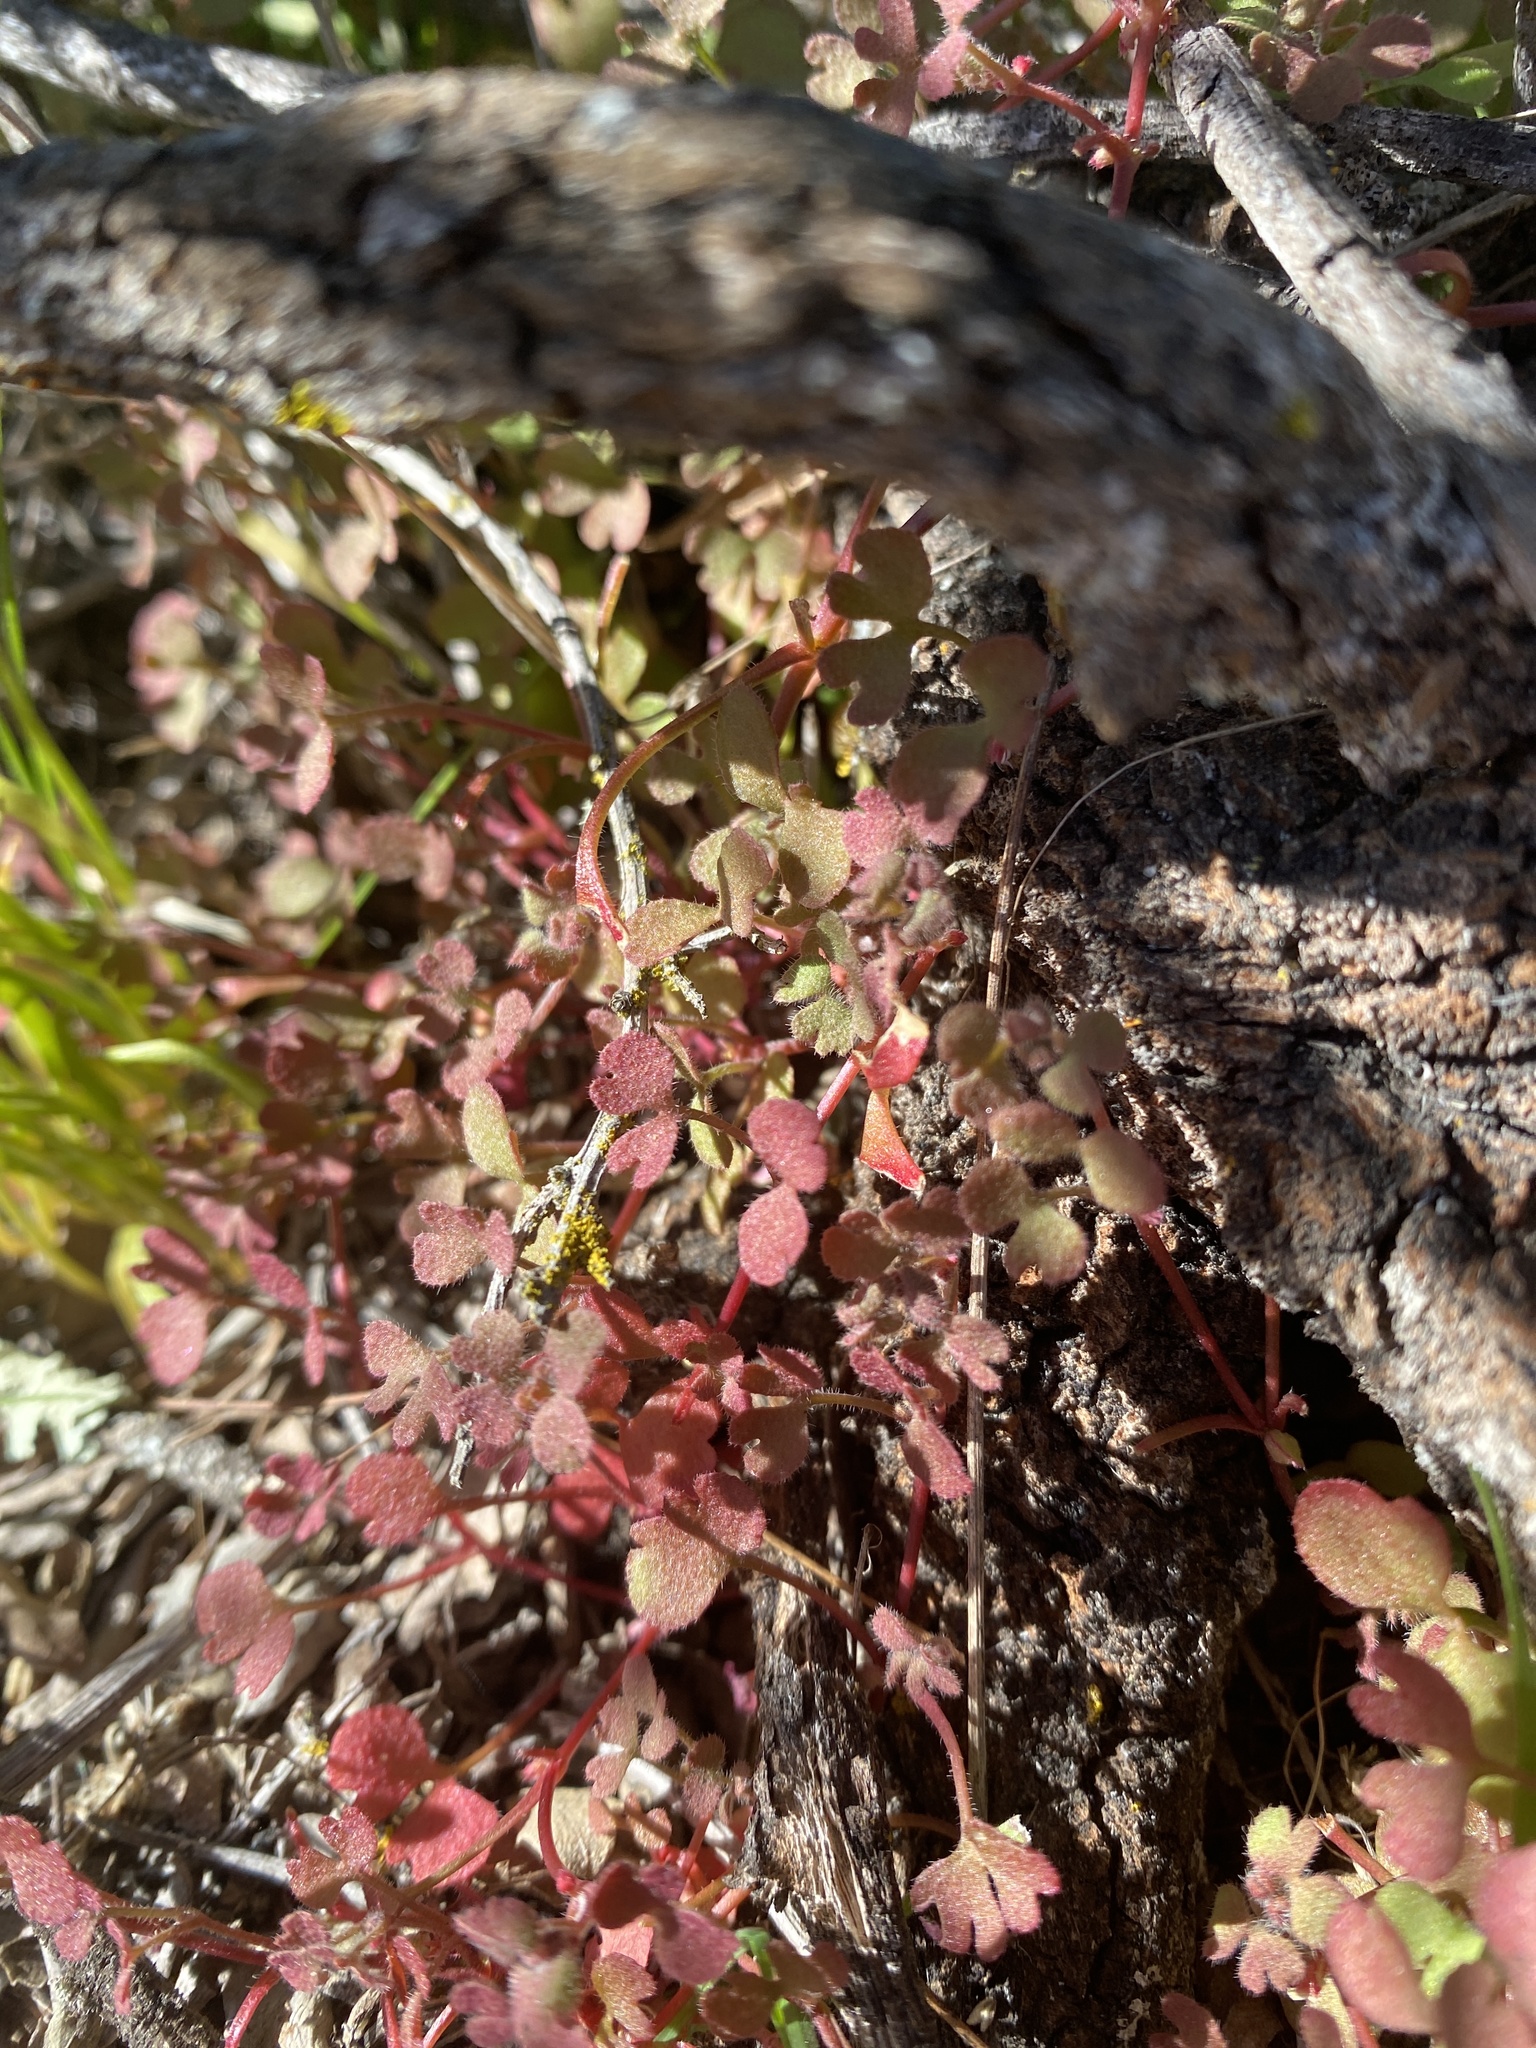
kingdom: Plantae
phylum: Tracheophyta
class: Magnoliopsida
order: Caryophyllales
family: Polygonaceae
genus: Pterostegia
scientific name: Pterostegia drymarioides
